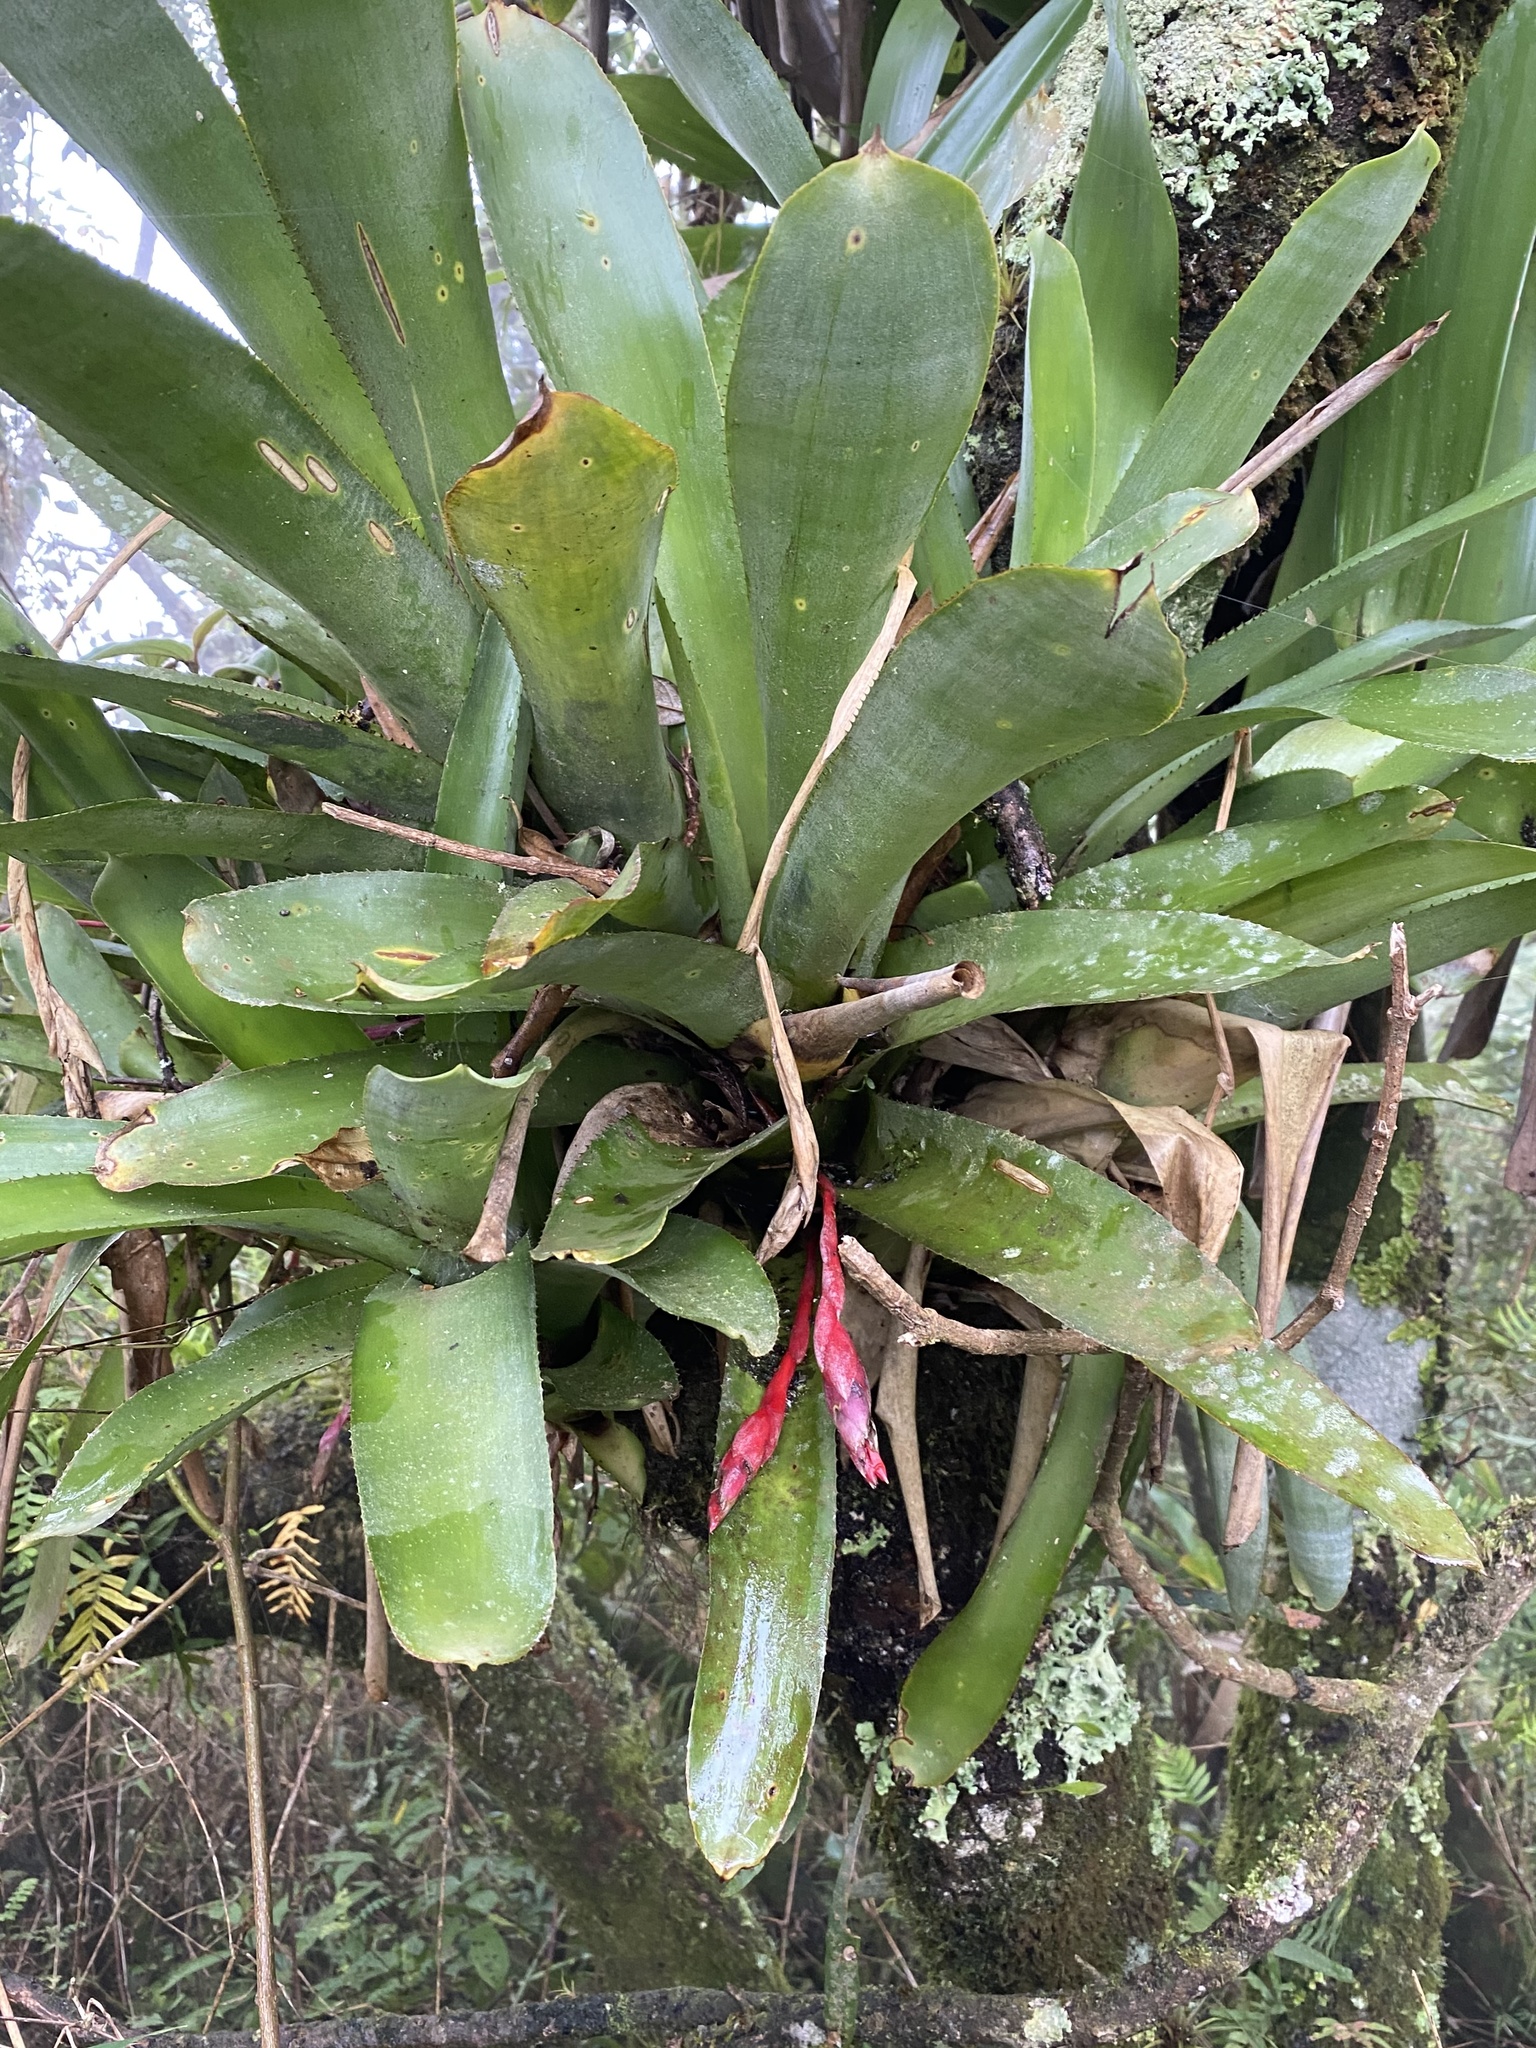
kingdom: Plantae
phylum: Tracheophyta
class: Liliopsida
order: Poales
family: Bromeliaceae
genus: Quesnelia
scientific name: Quesnelia lateralis
